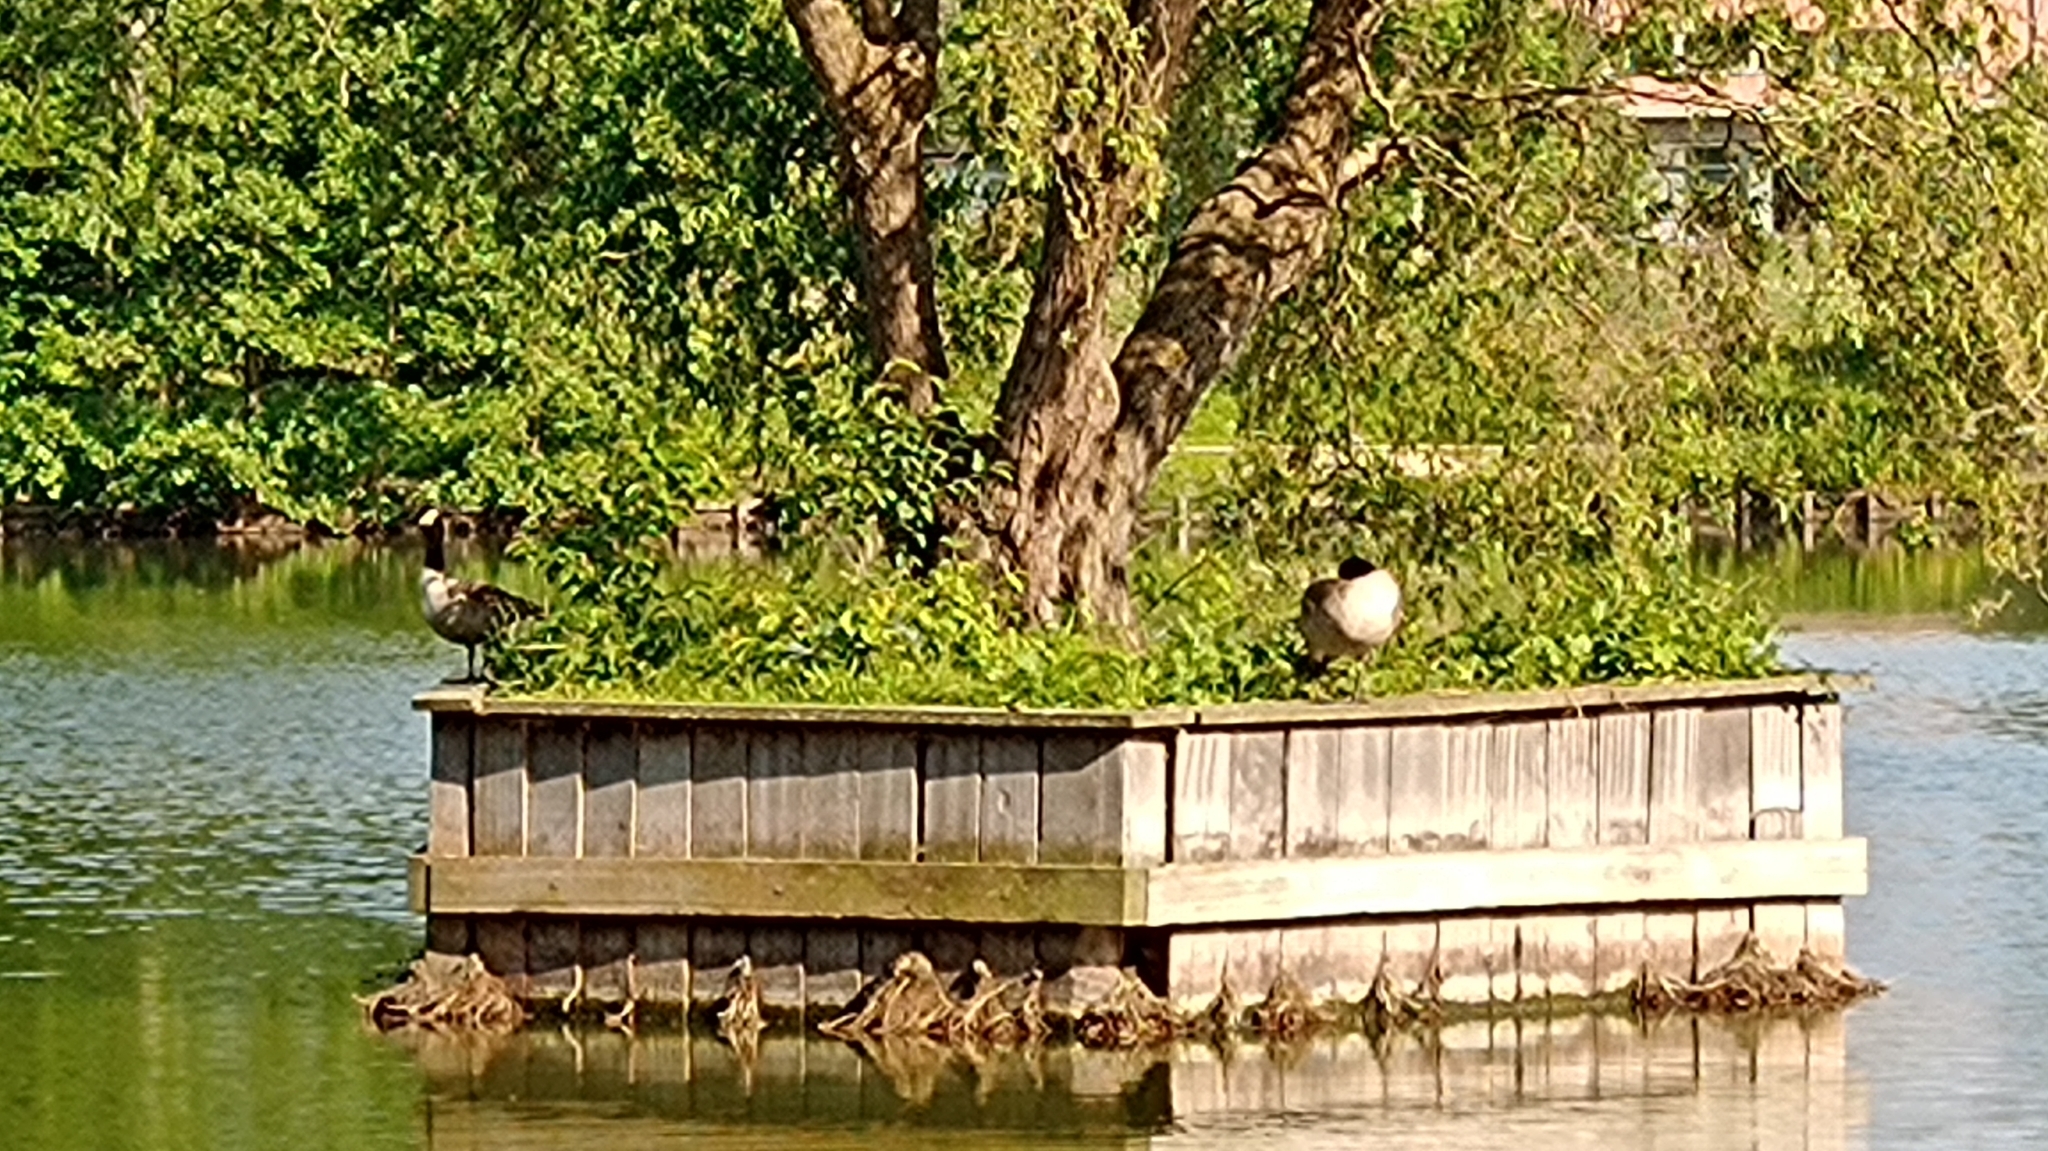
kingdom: Animalia
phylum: Chordata
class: Aves
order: Anseriformes
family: Anatidae
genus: Branta
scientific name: Branta canadensis
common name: Canada goose
